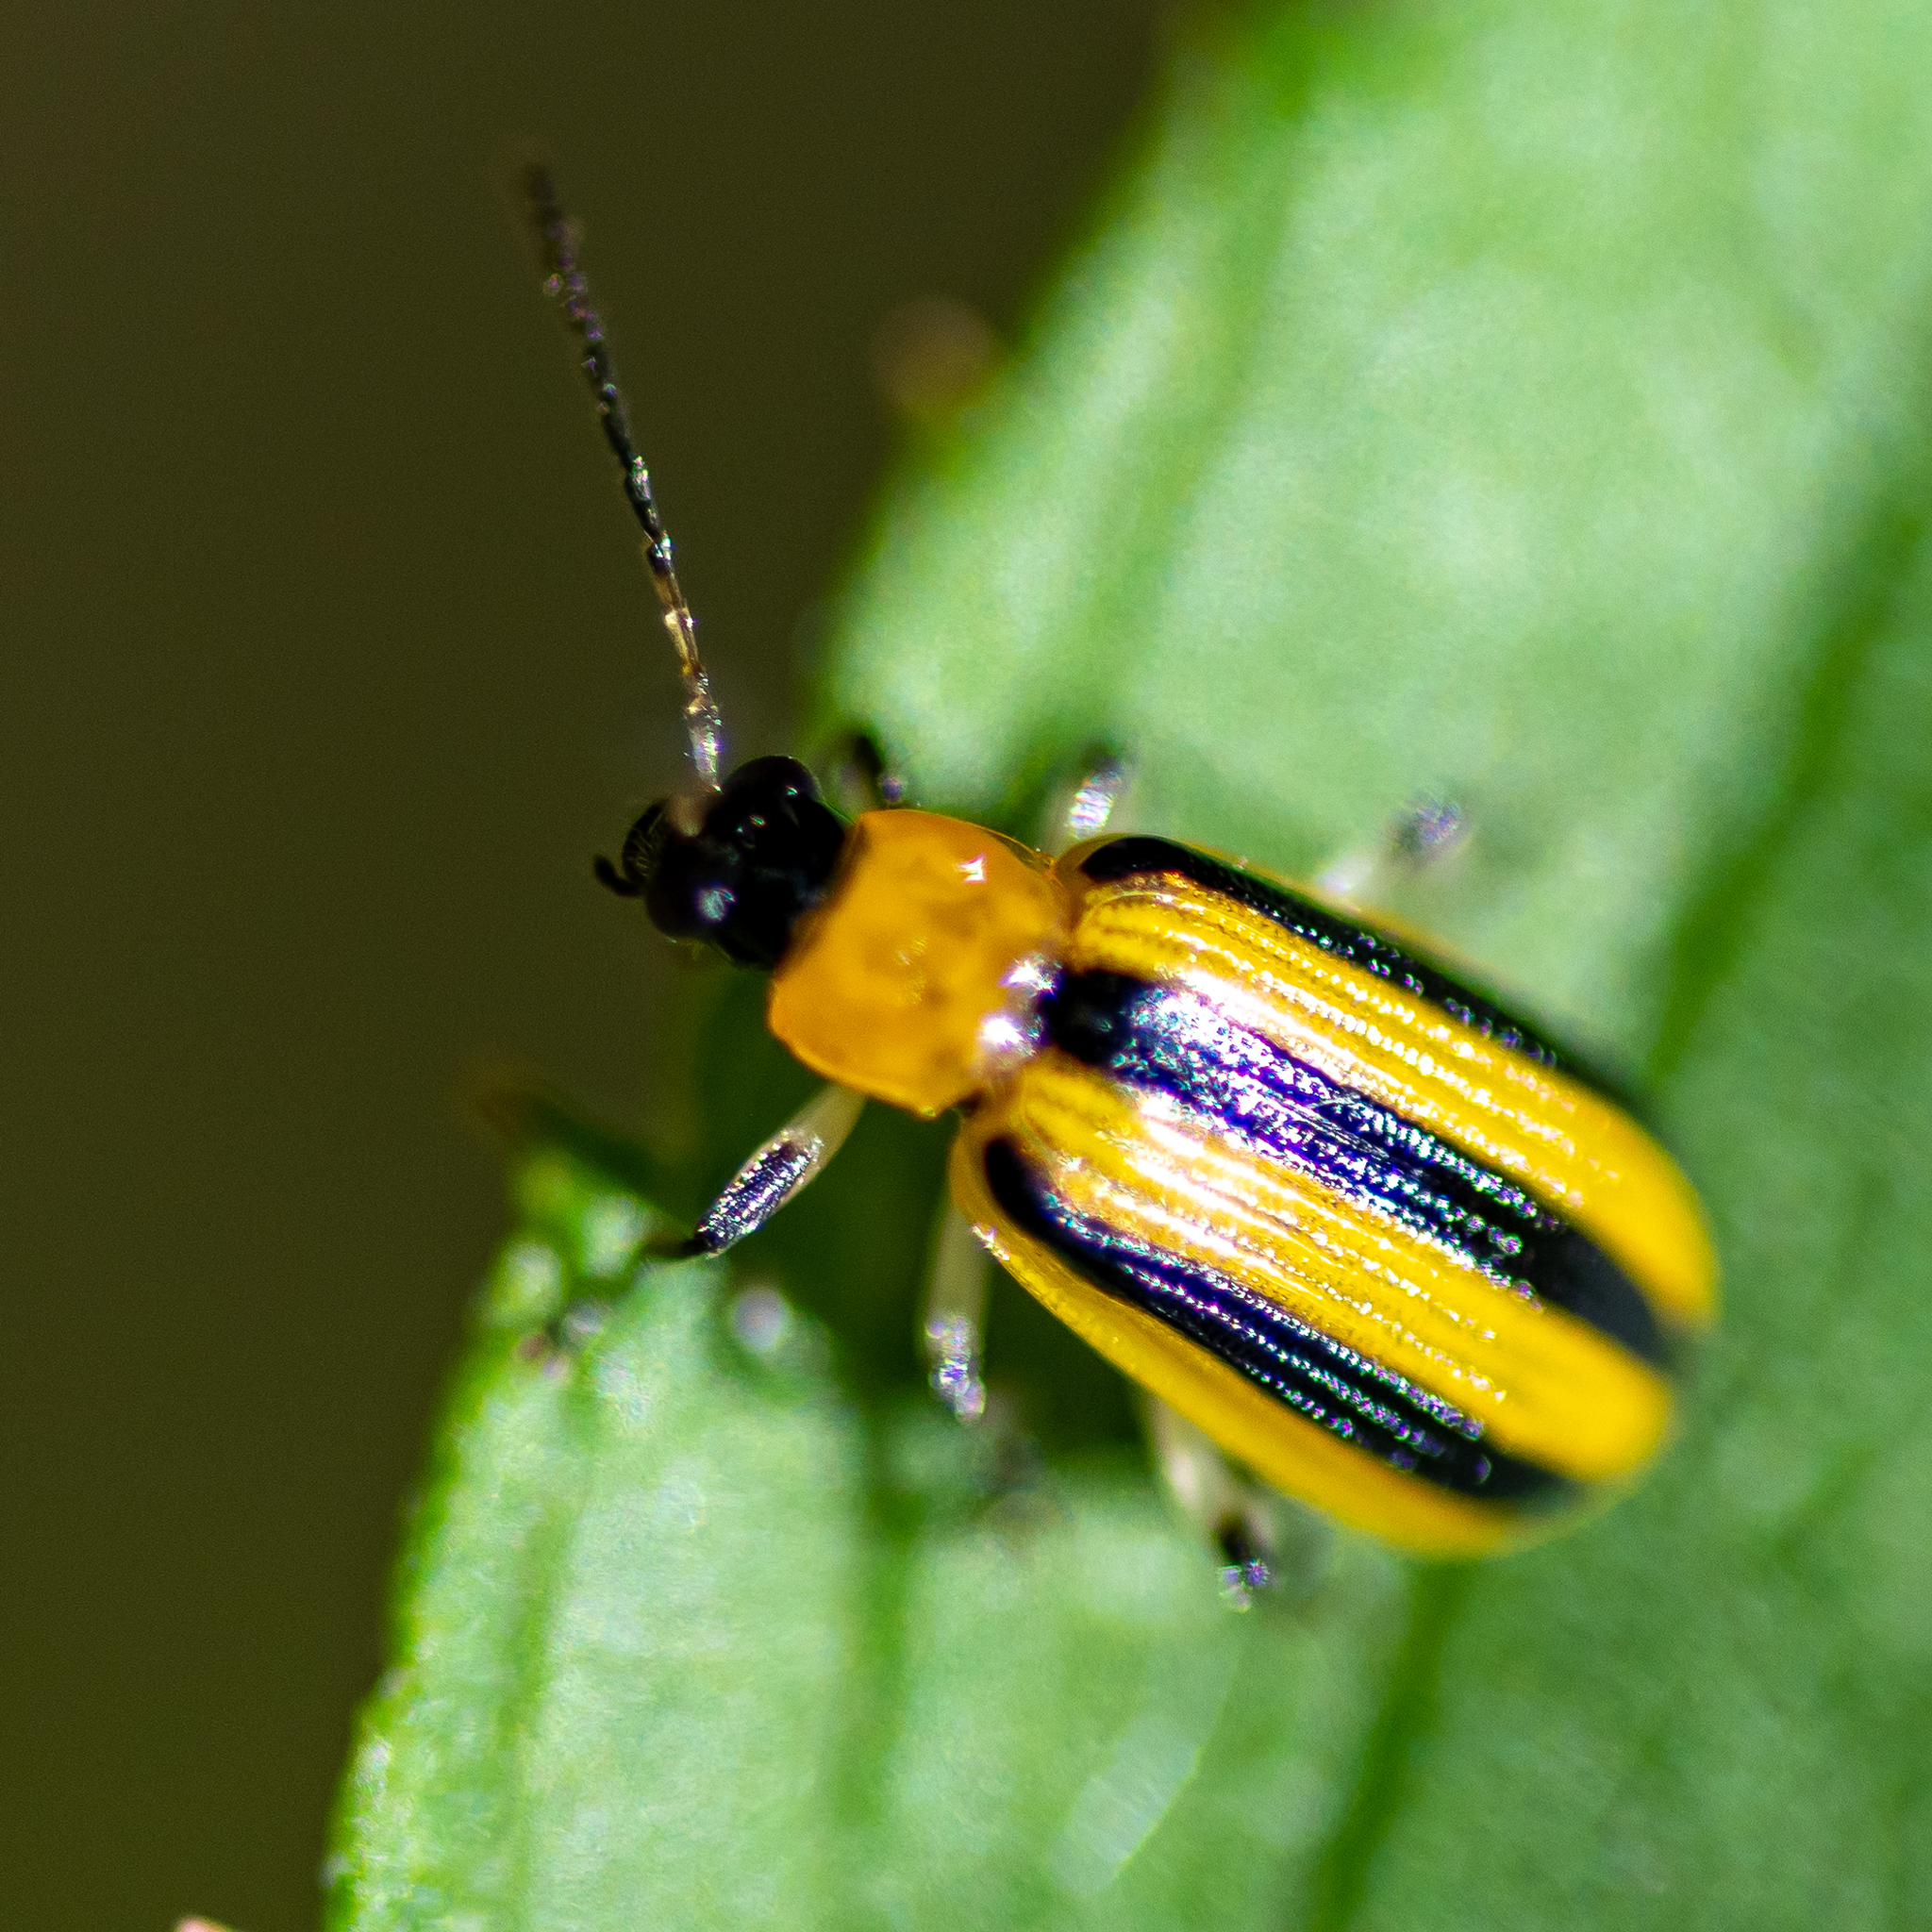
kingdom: Animalia
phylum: Arthropoda
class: Insecta
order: Coleoptera
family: Chrysomelidae
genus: Acalymma
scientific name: Acalymma vittatum
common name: Striped cucumber beetle
